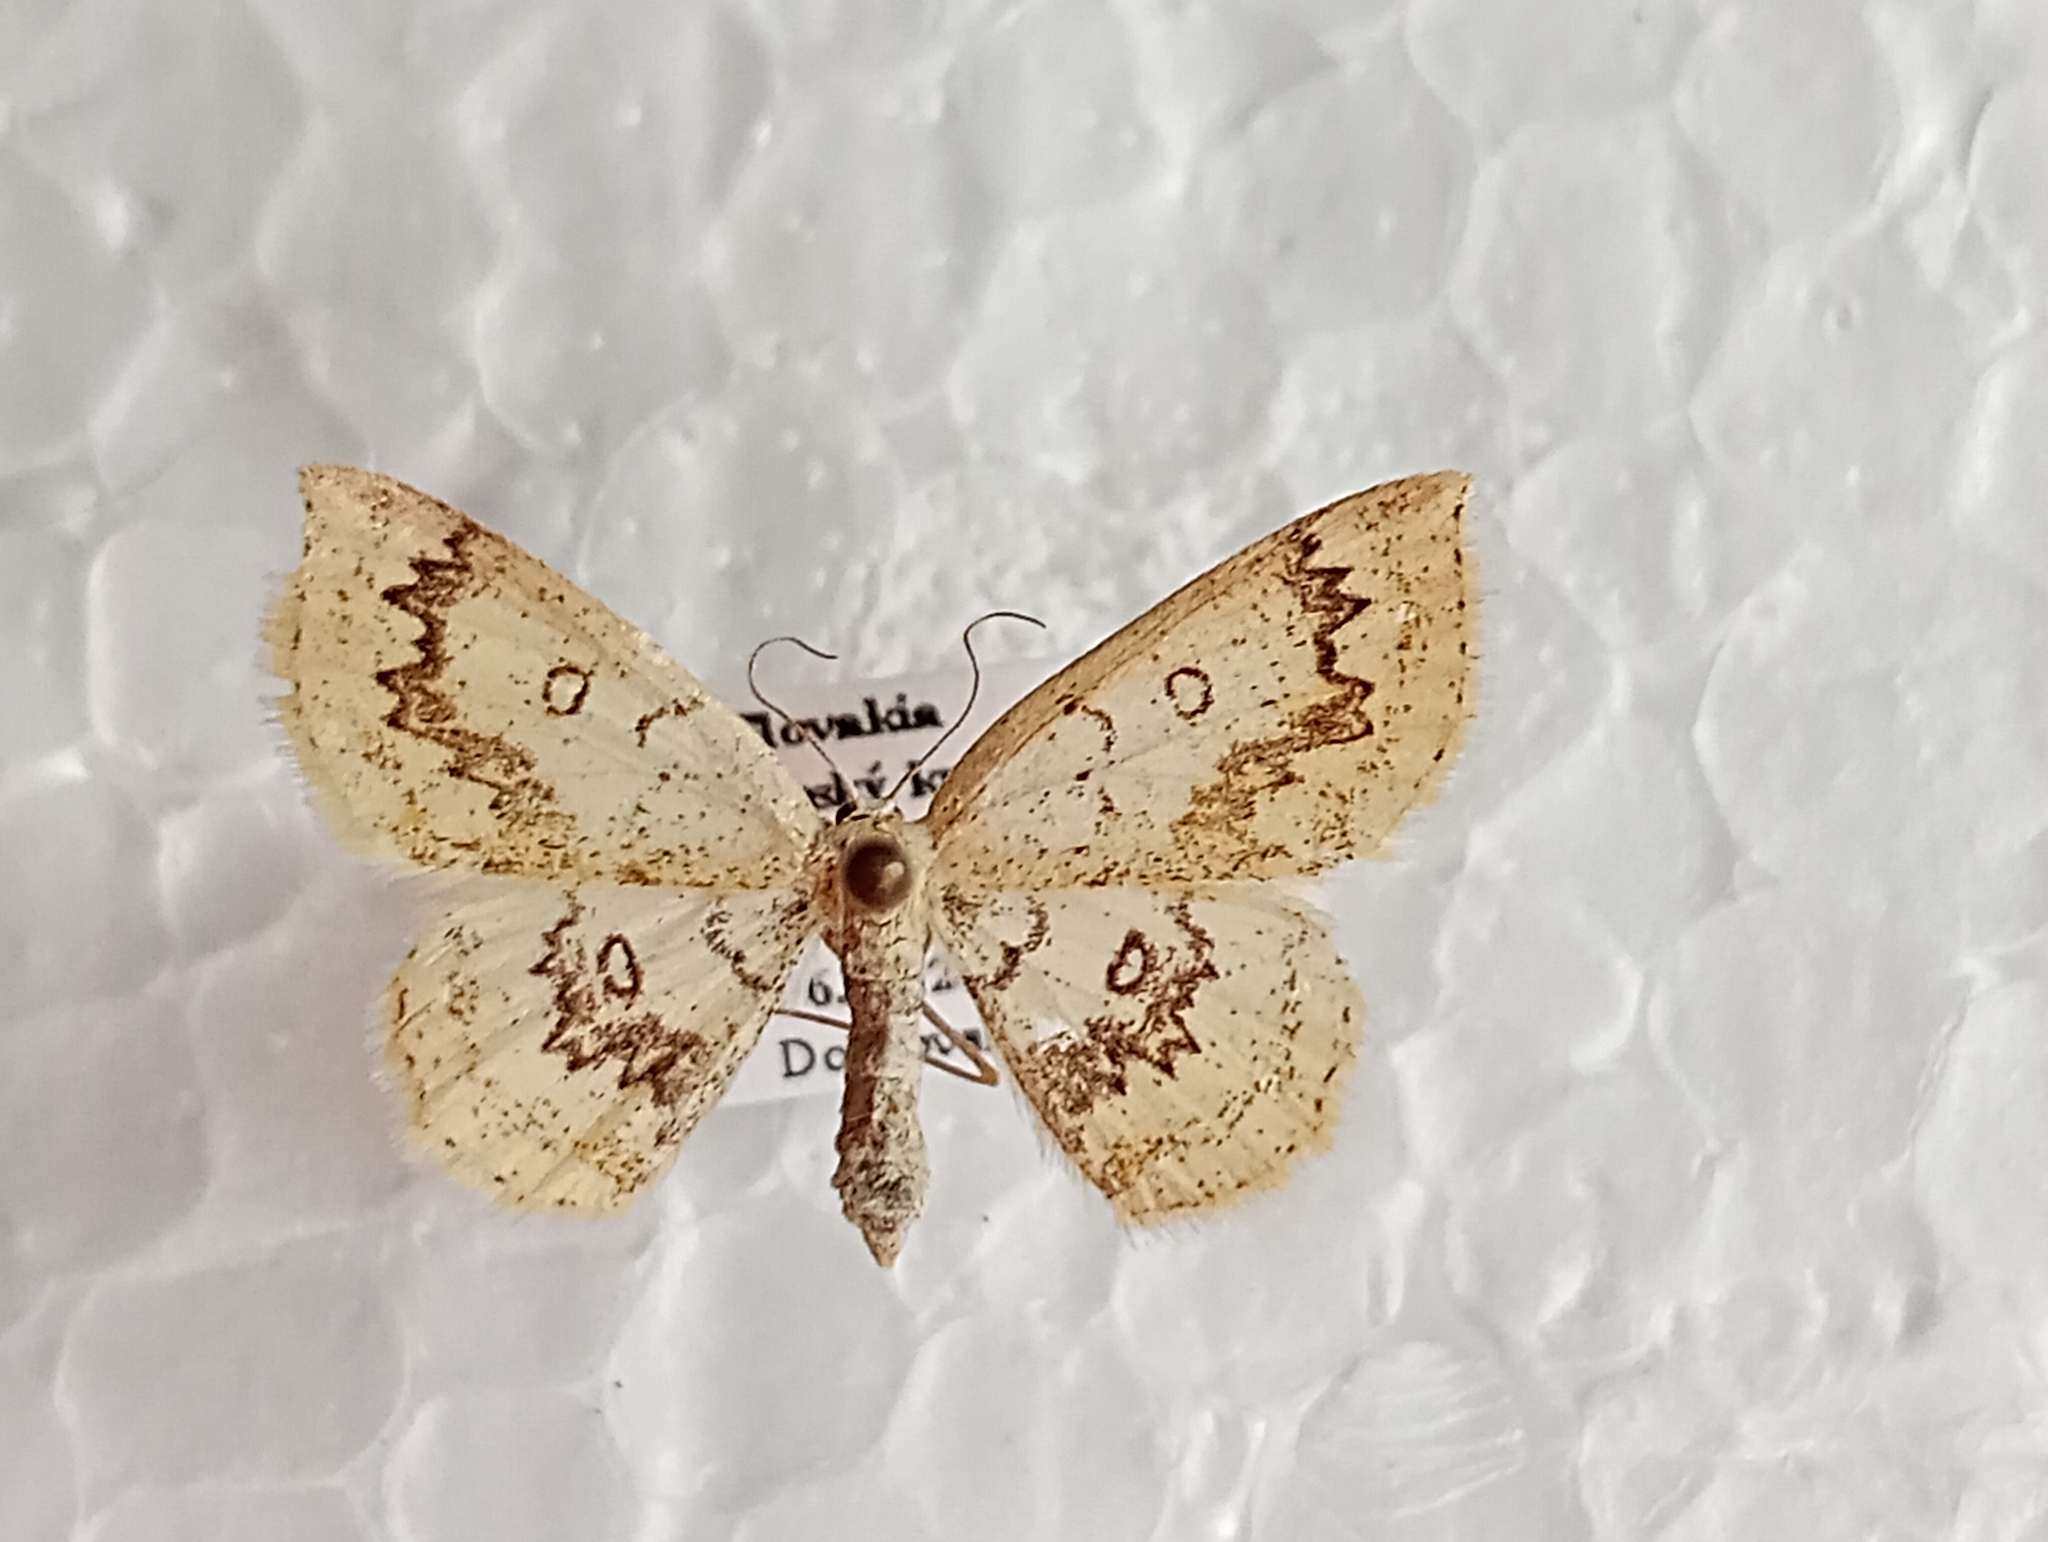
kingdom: Animalia
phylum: Arthropoda
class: Insecta
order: Lepidoptera
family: Geometridae
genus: Cyclophora
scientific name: Cyclophora annularia
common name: Mocha
